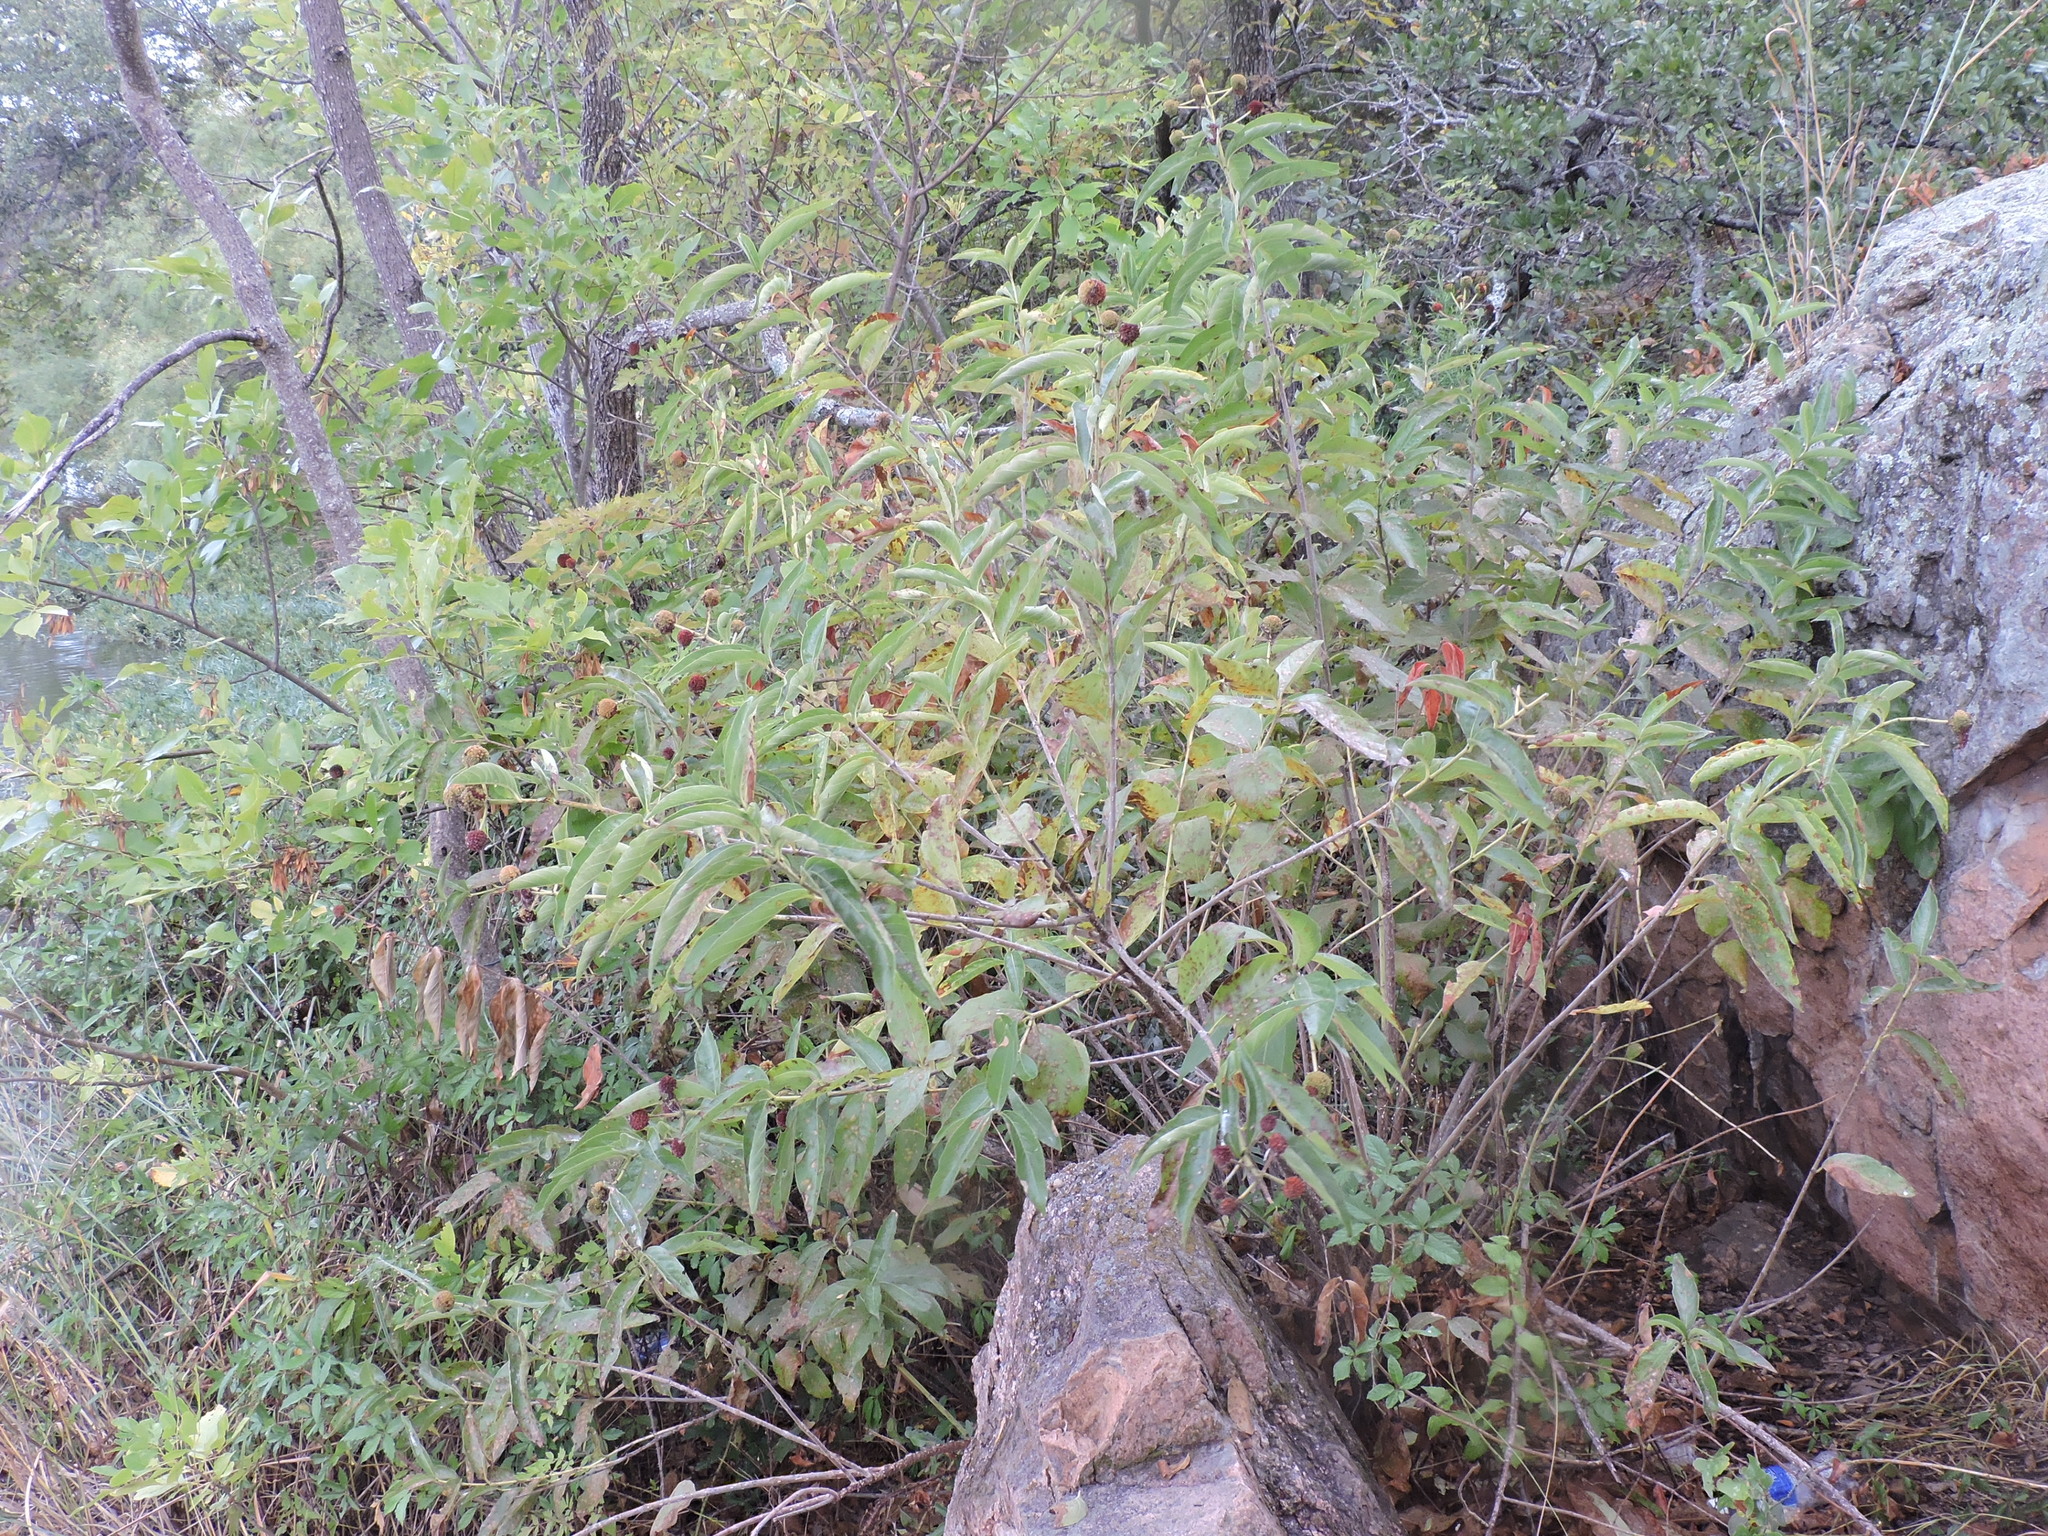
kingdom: Plantae
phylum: Tracheophyta
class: Magnoliopsida
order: Gentianales
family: Rubiaceae
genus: Cephalanthus
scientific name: Cephalanthus occidentalis
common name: Button-willow
